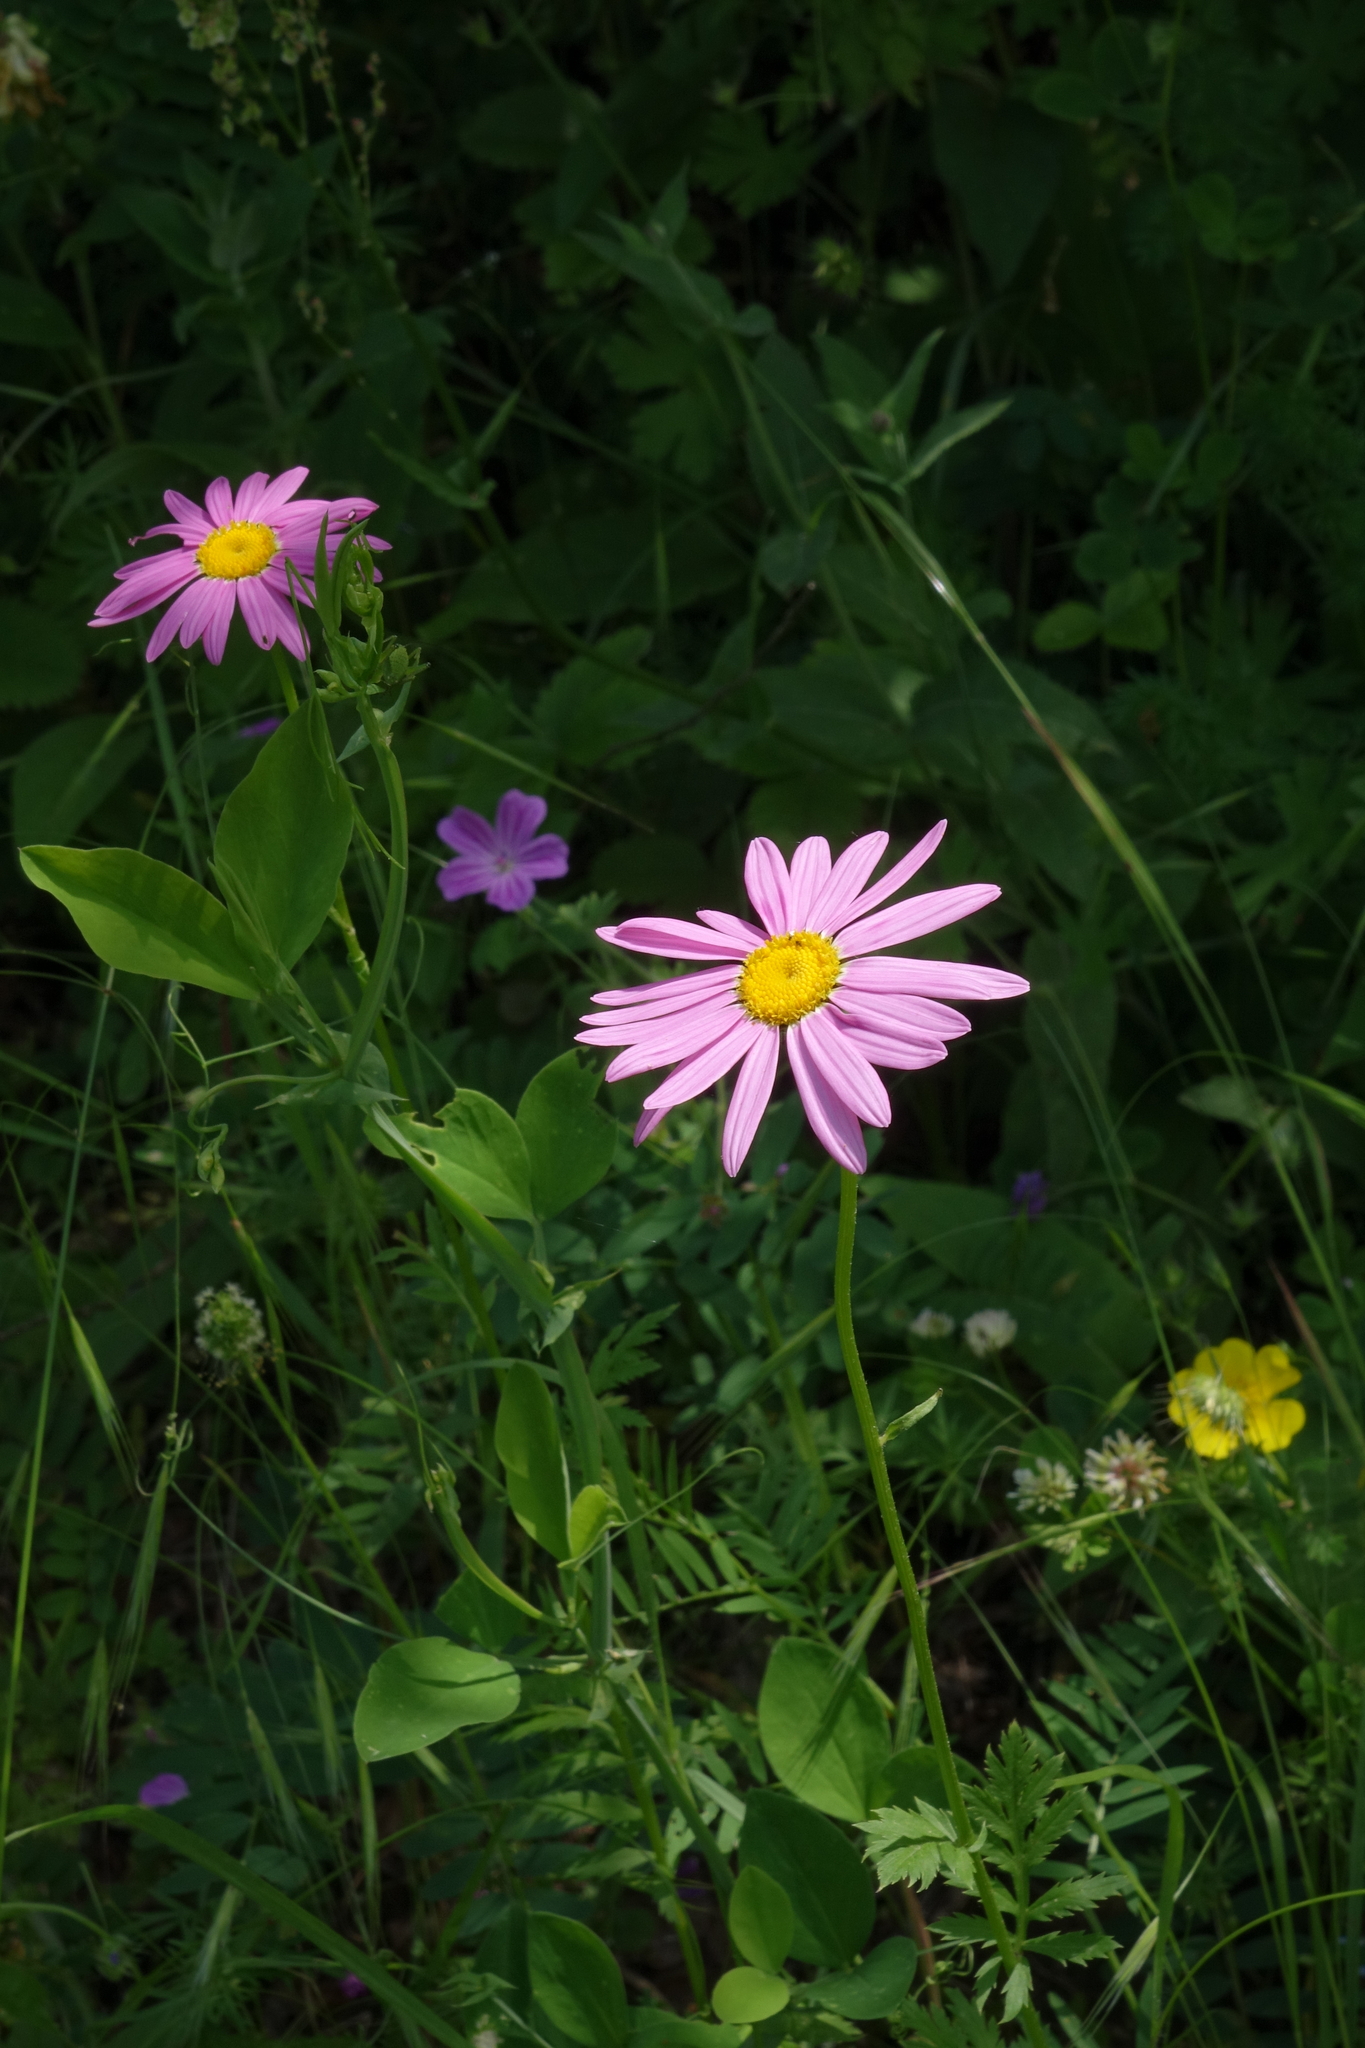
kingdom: Plantae
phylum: Tracheophyta
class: Magnoliopsida
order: Asterales
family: Asteraceae
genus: Tanacetum
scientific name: Tanacetum coccineum
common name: Pyrethum daisy
